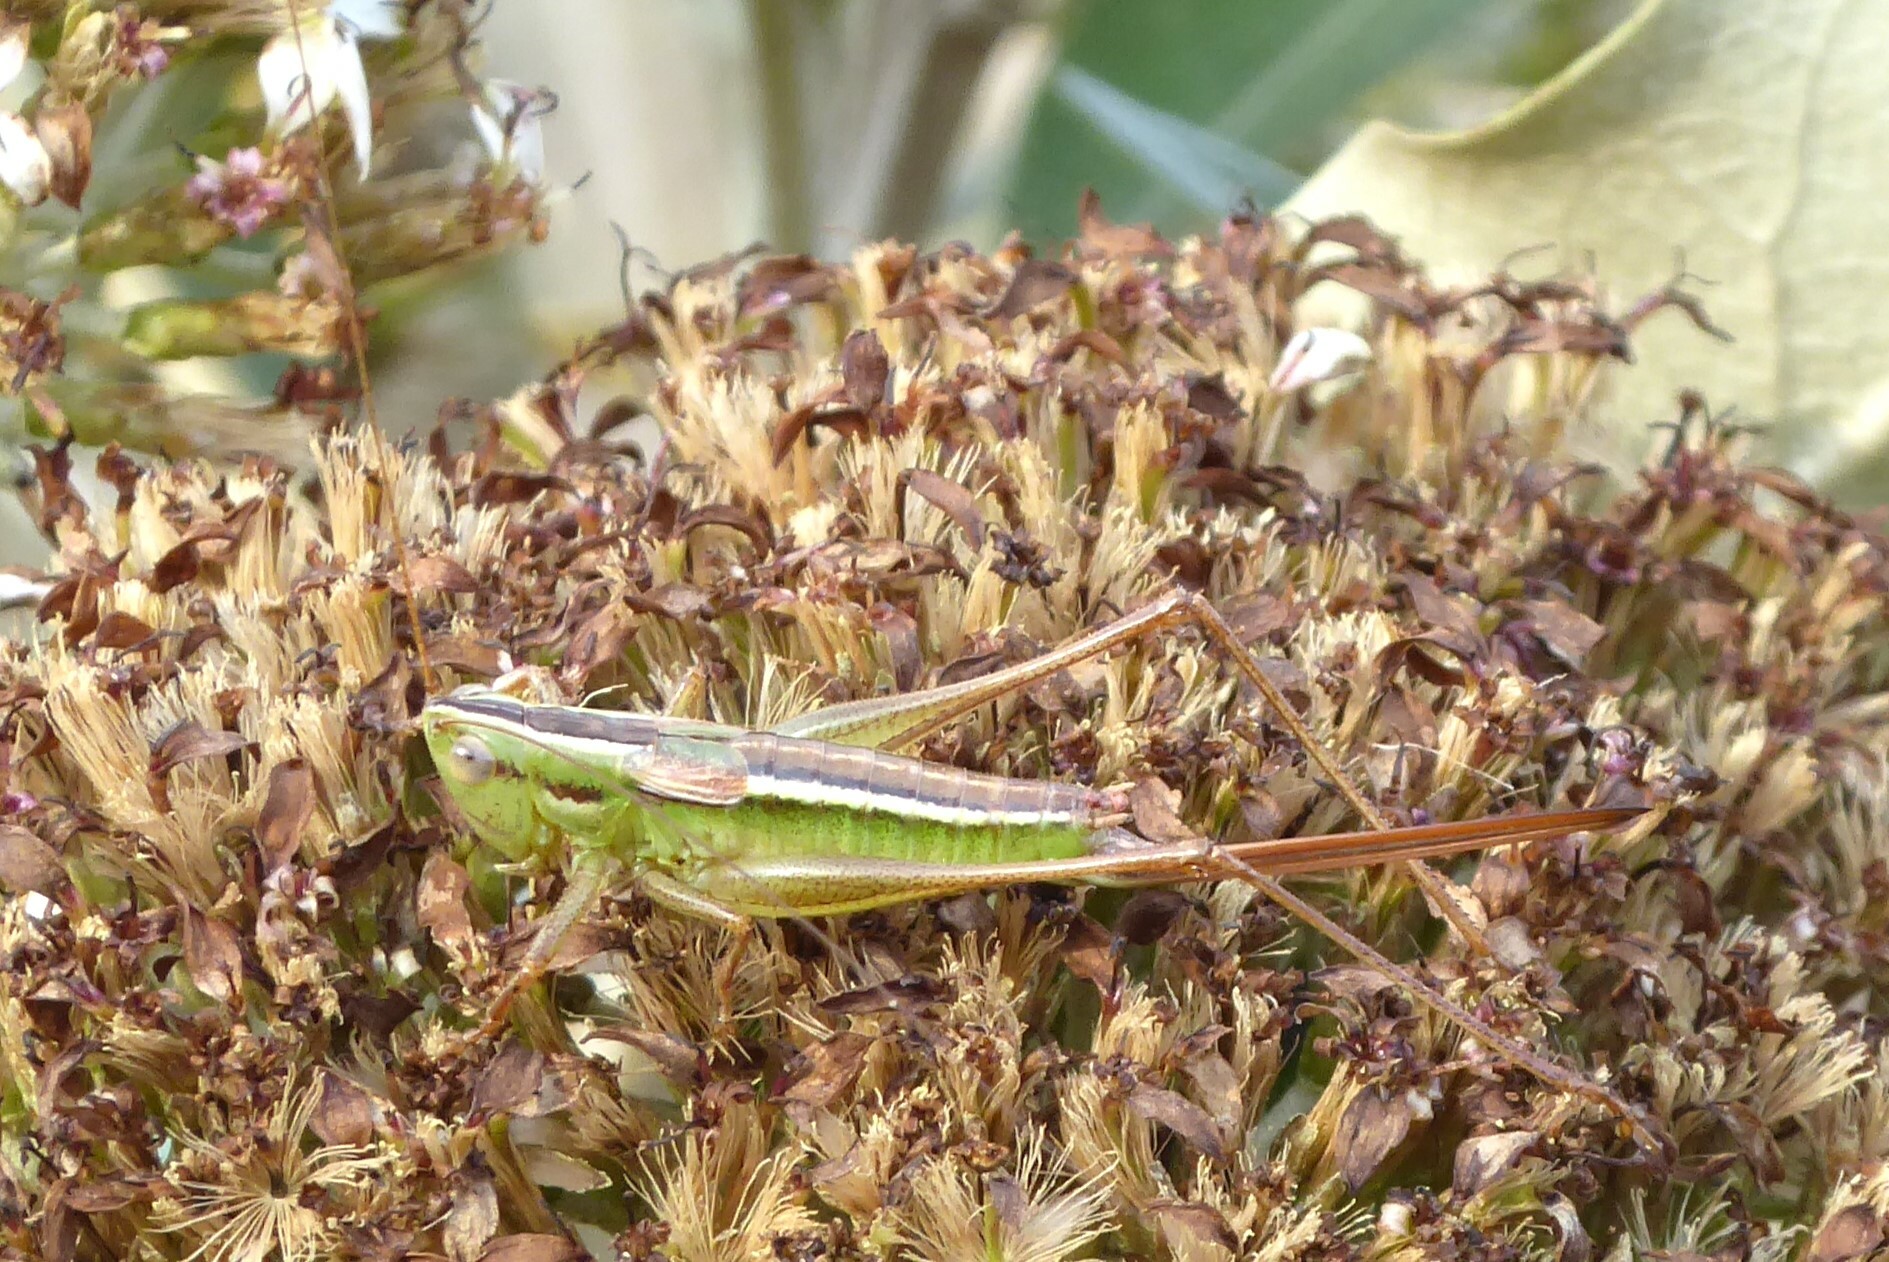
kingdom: Animalia
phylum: Arthropoda
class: Insecta
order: Orthoptera
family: Tettigoniidae
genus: Conocephalus
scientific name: Conocephalus bilineatus
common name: Small meadow katydid
